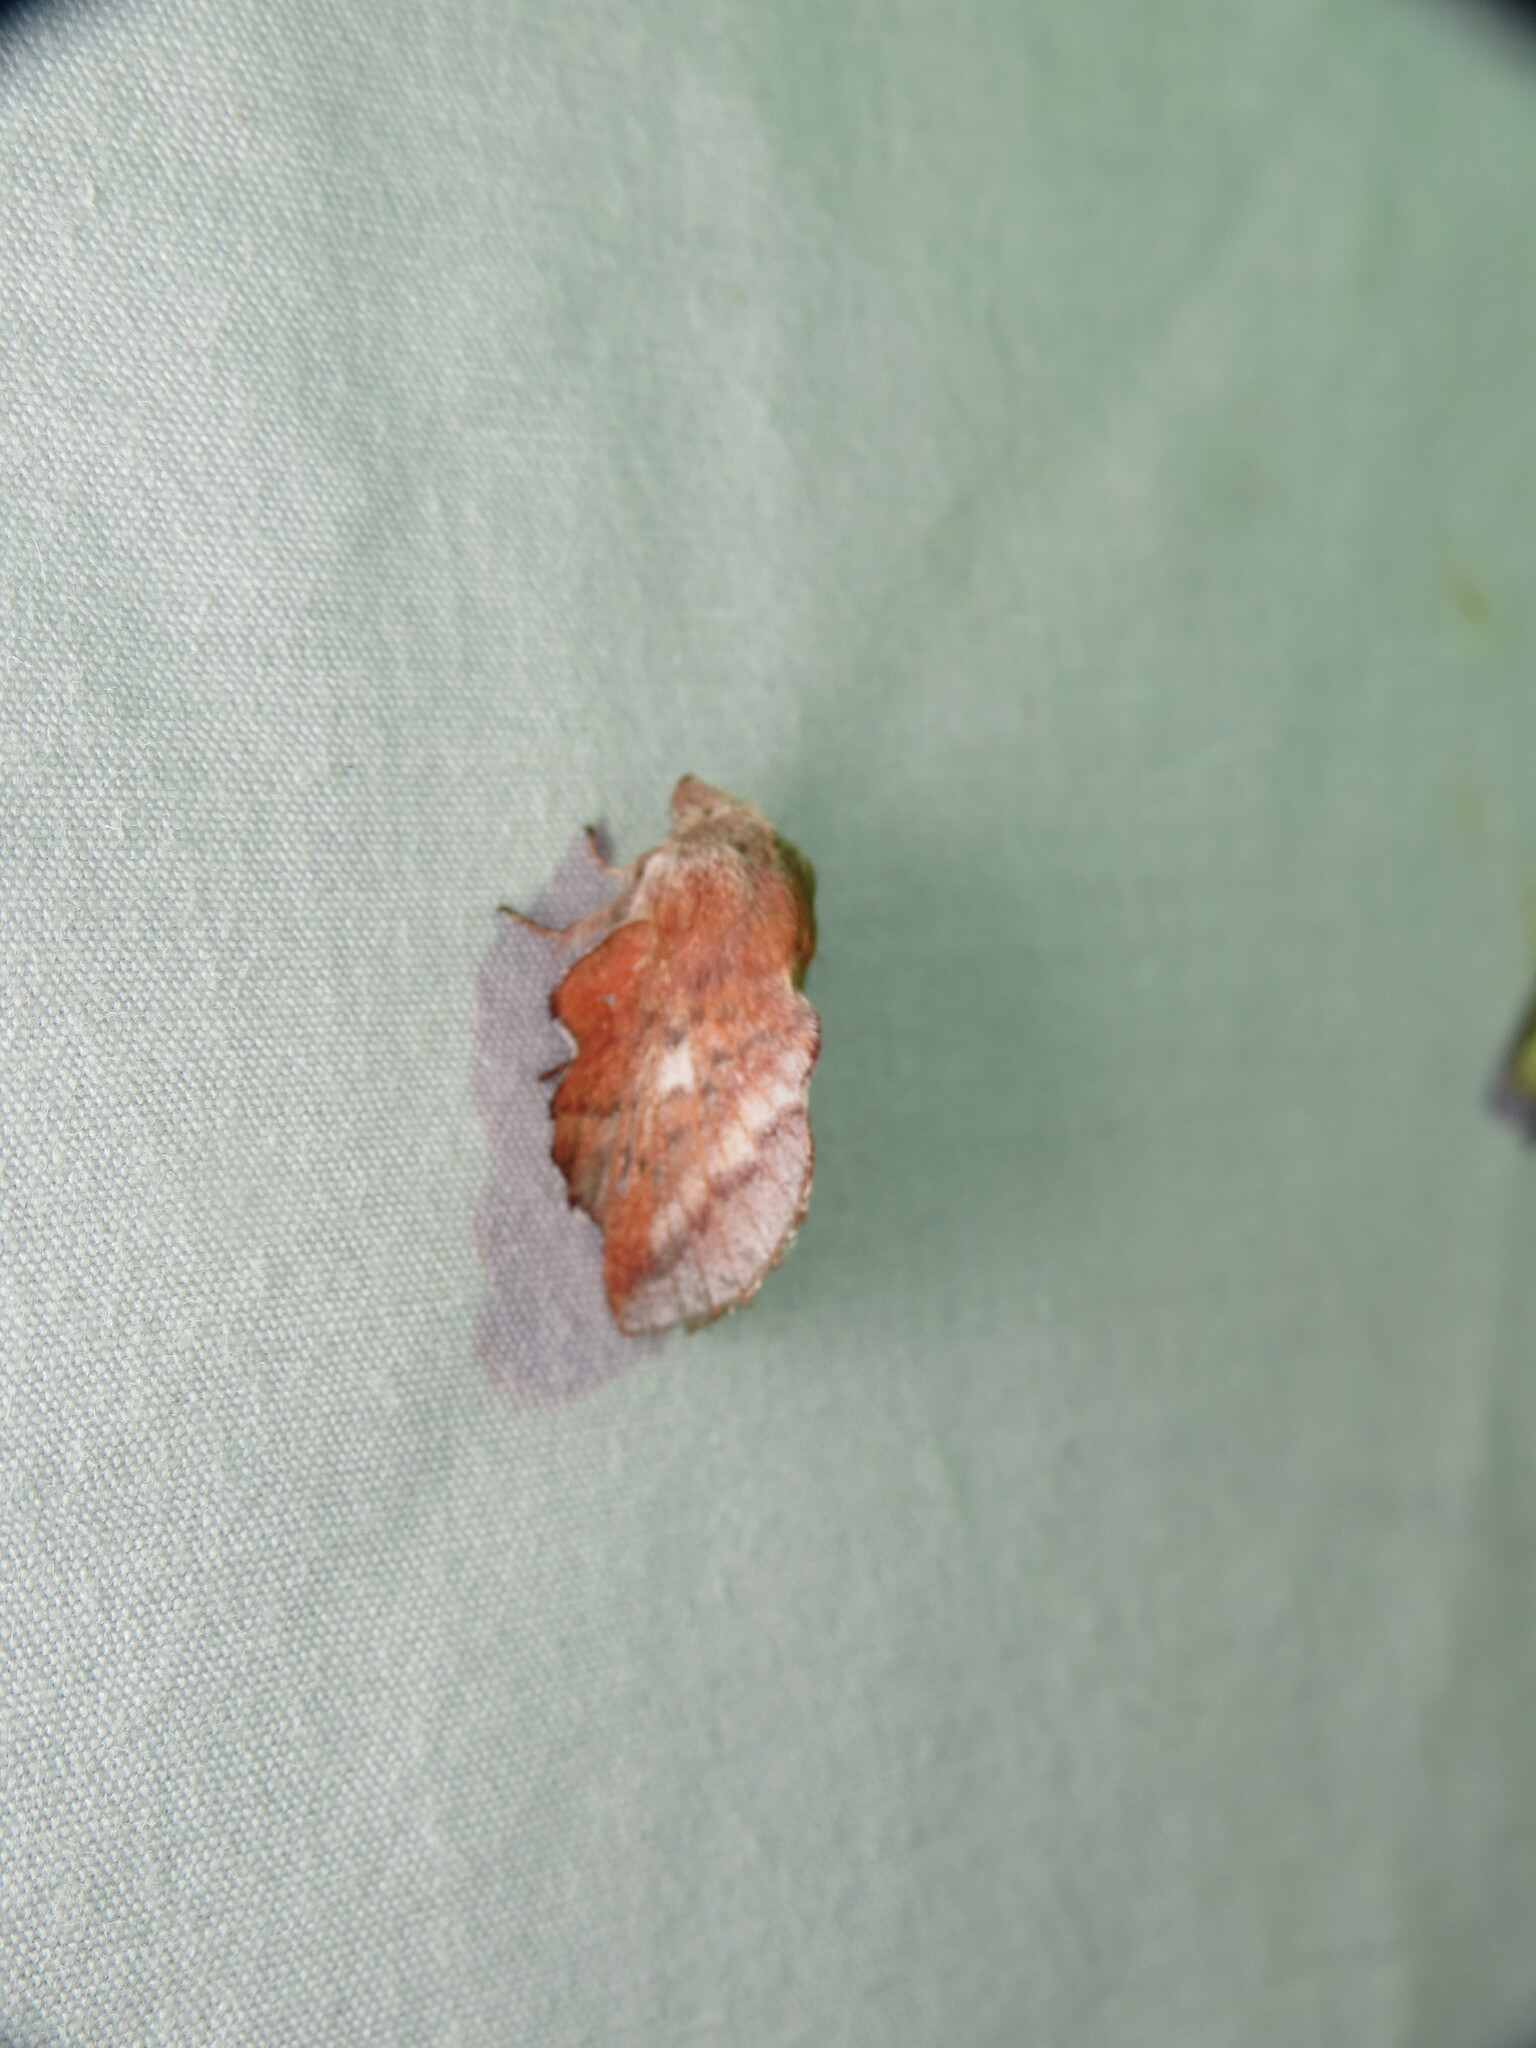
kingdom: Animalia
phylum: Arthropoda
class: Insecta
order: Lepidoptera
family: Lasiocampidae
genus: Phyllodesma
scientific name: Phyllodesma americana
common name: American lappet moth
